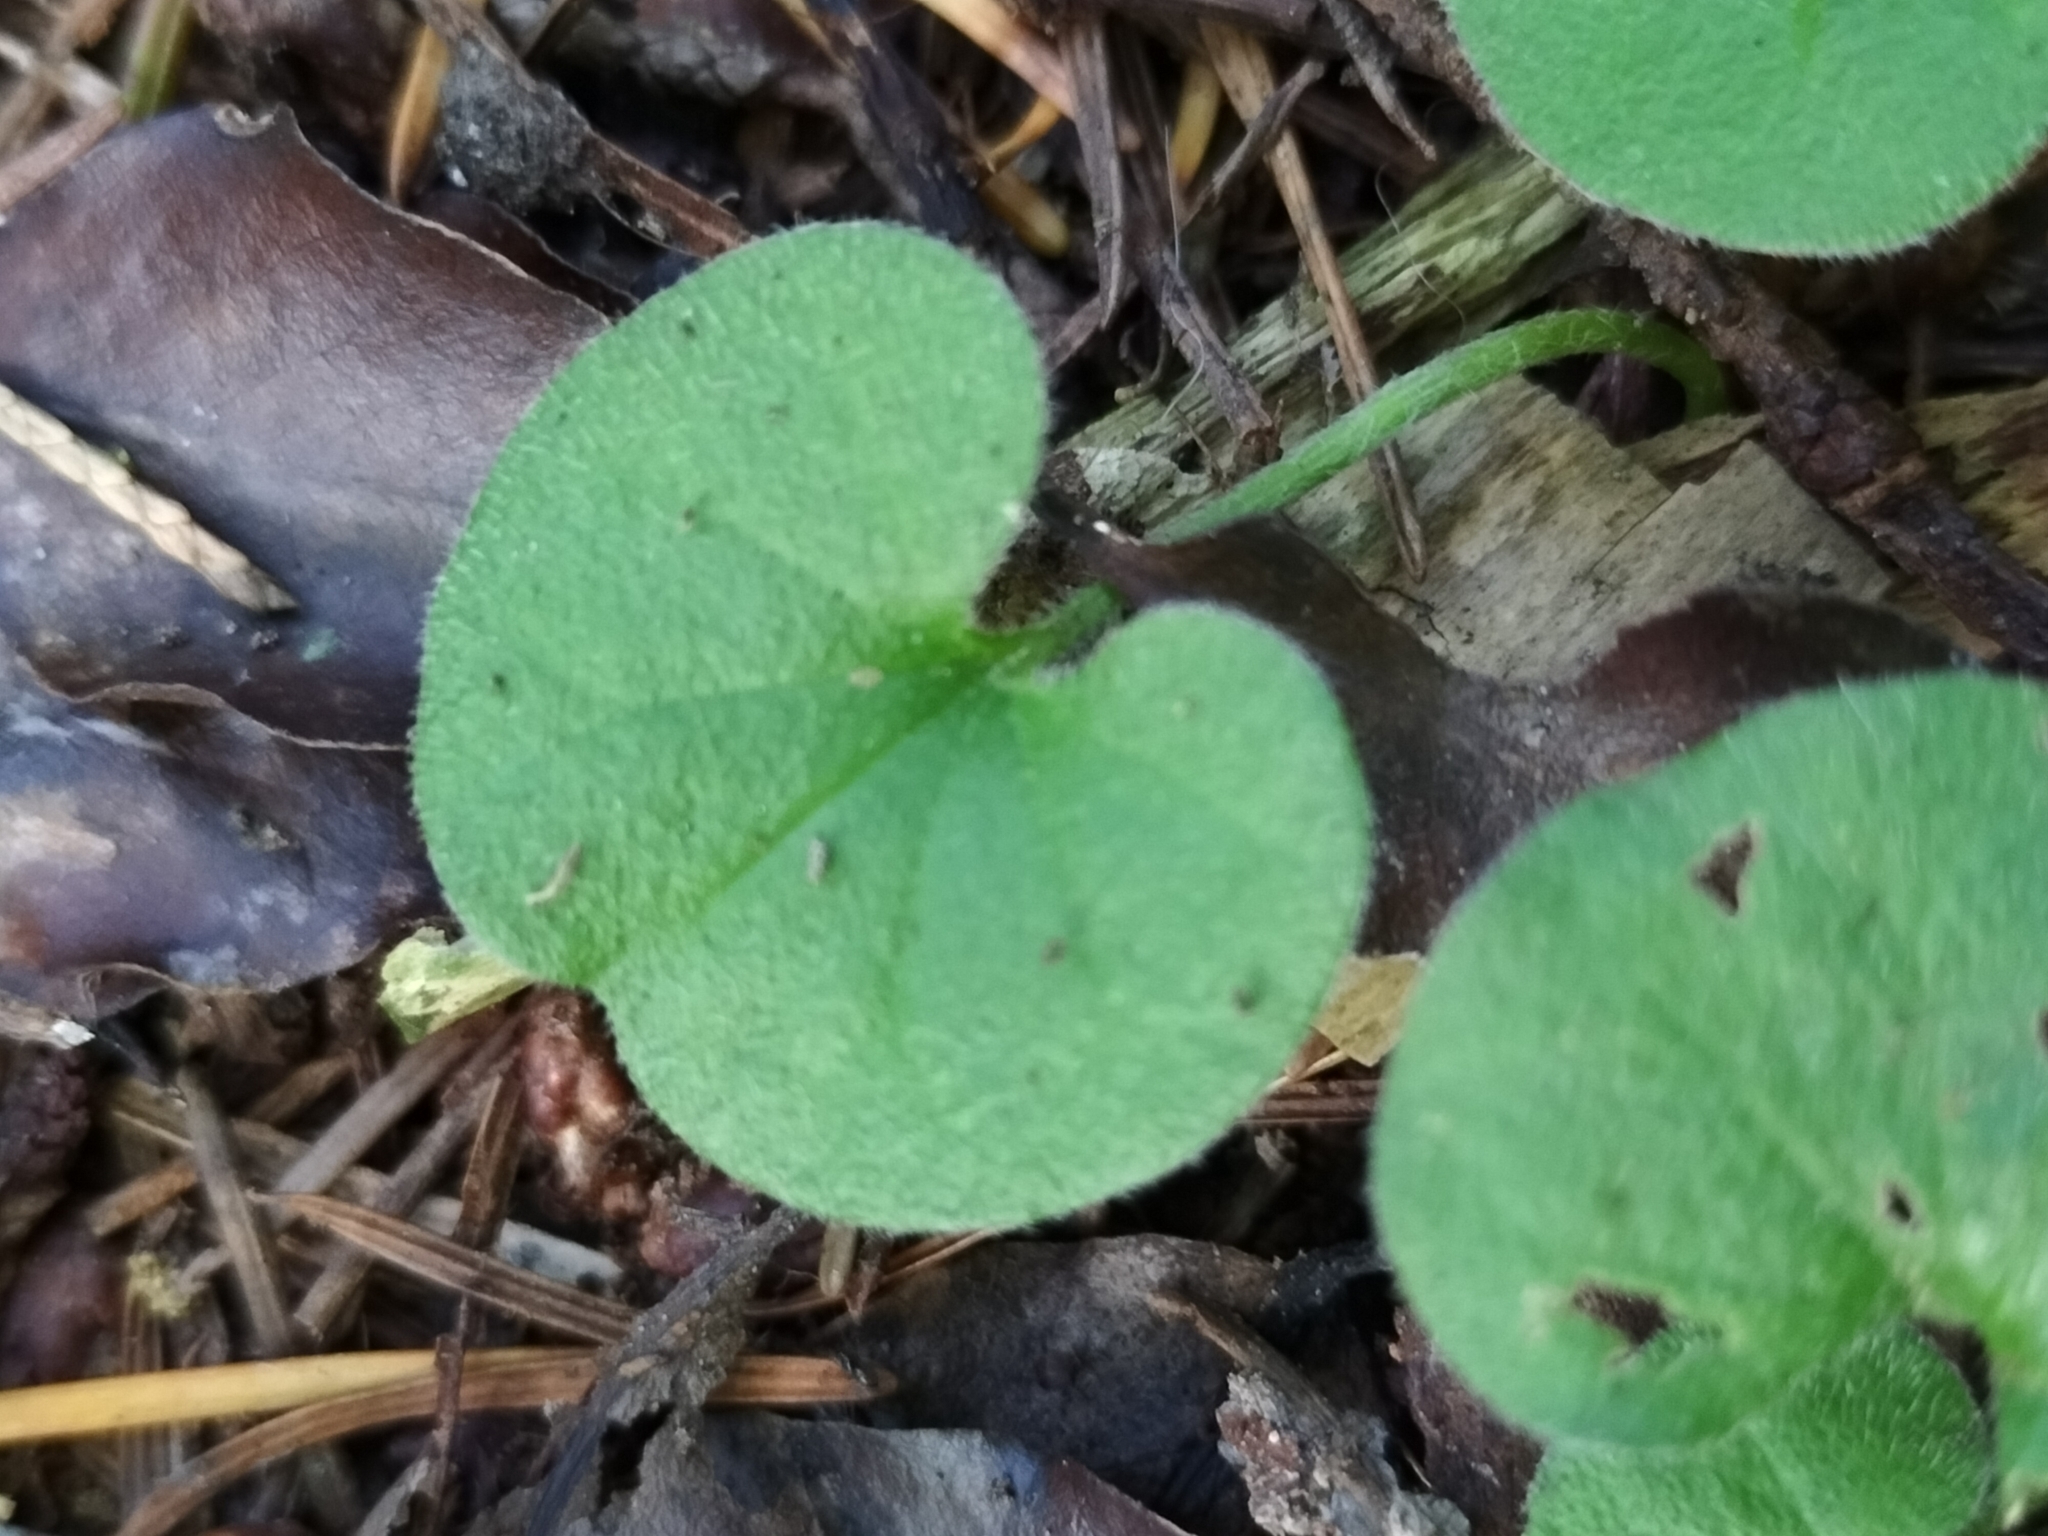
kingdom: Plantae
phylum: Tracheophyta
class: Magnoliopsida
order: Solanales
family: Convolvulaceae
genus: Dichondra
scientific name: Dichondra repens
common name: Kidneyweed
